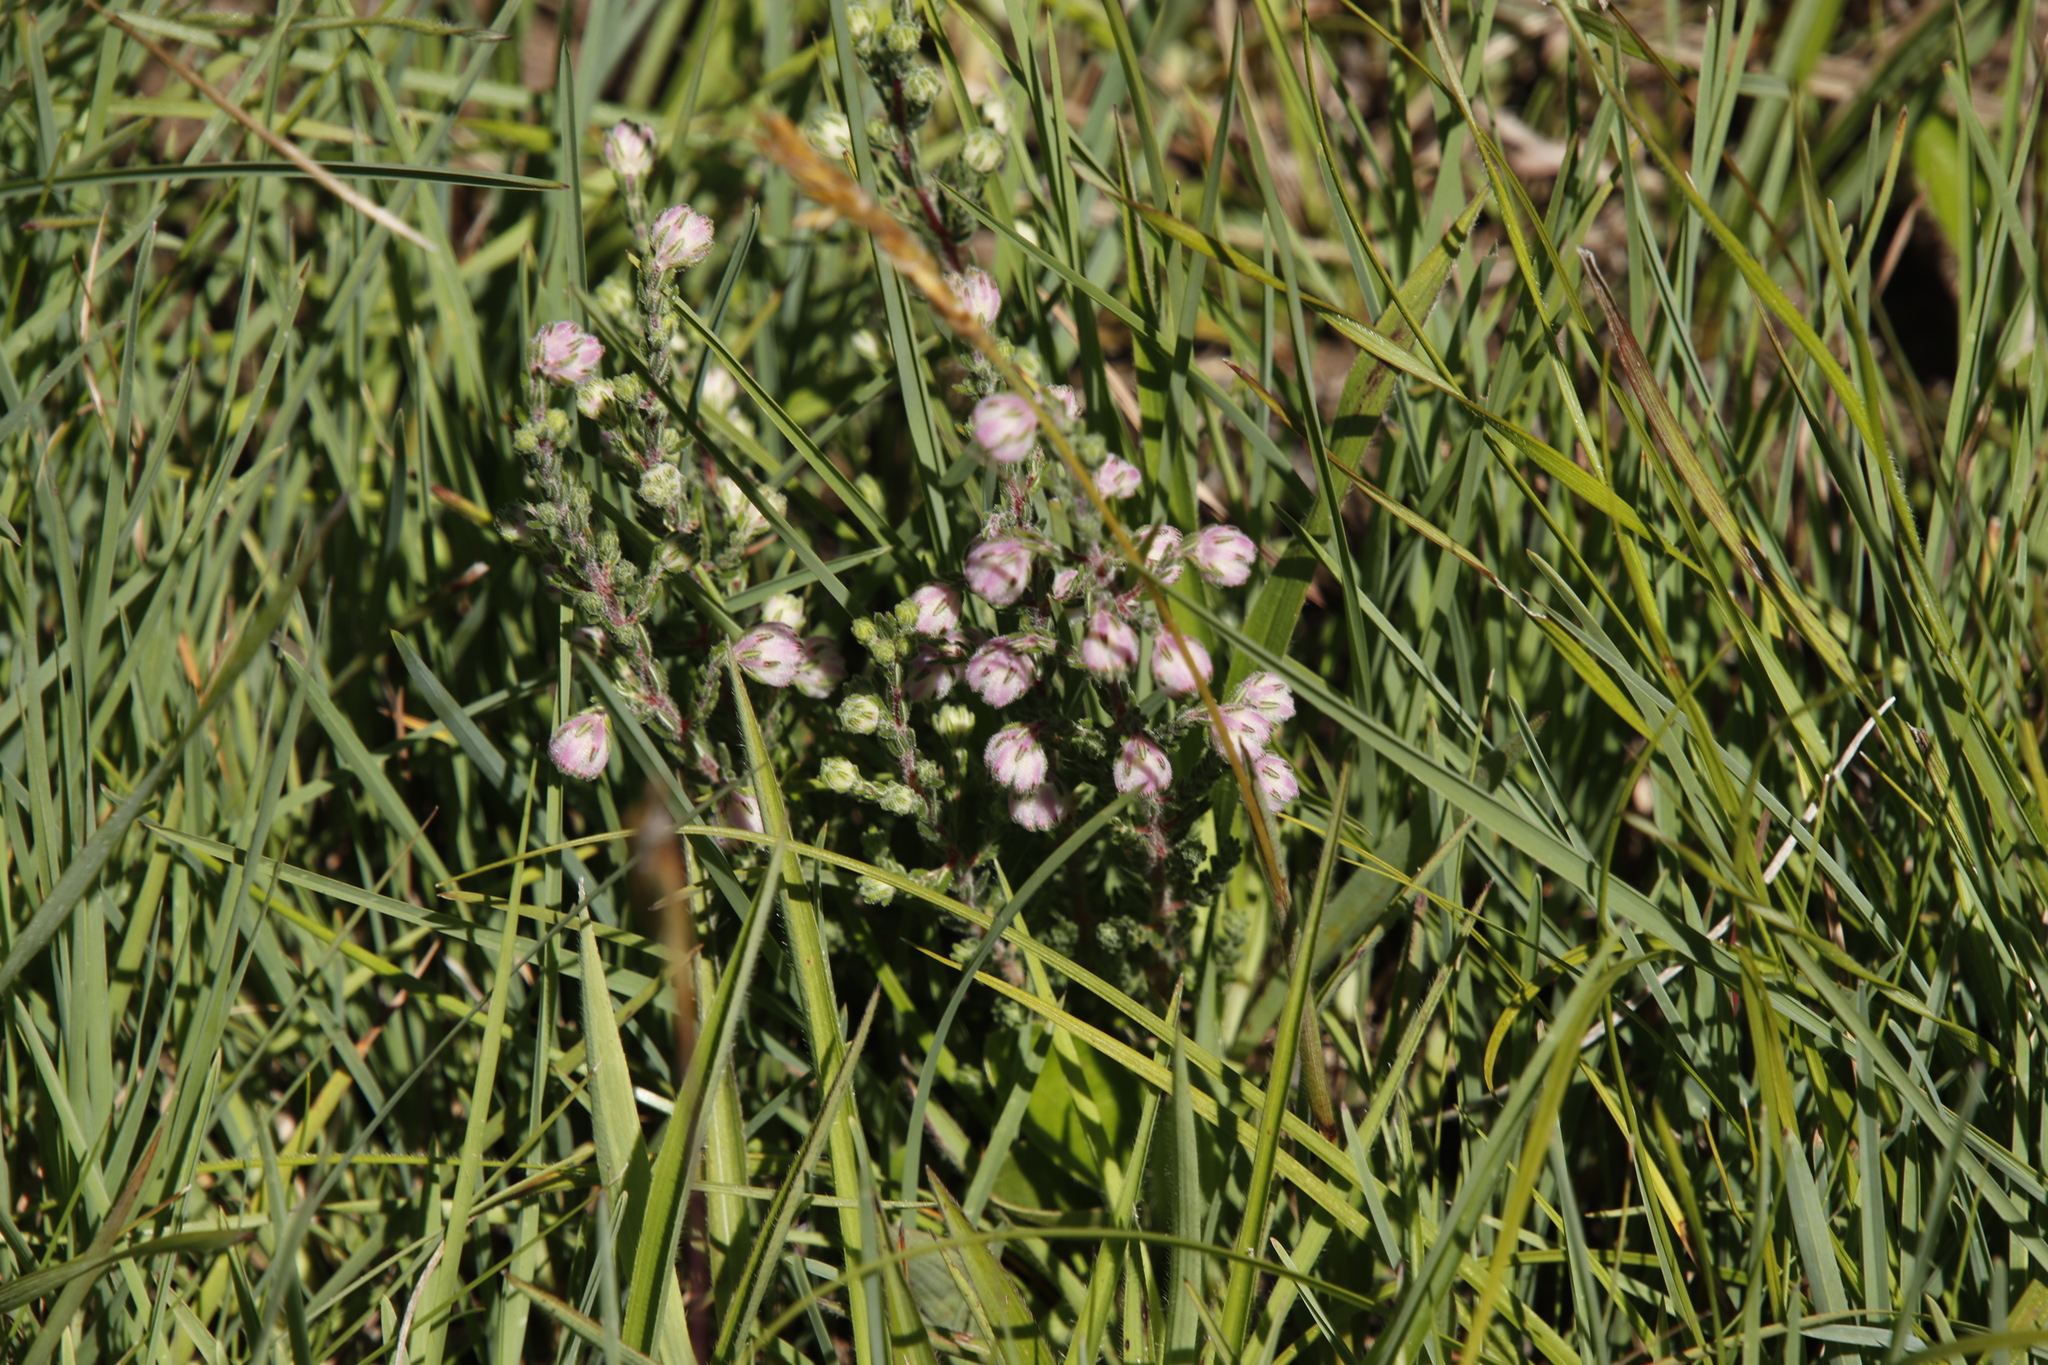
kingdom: Plantae
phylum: Tracheophyta
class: Magnoliopsida
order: Ericales
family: Ericaceae
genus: Erica
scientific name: Erica cooperi
